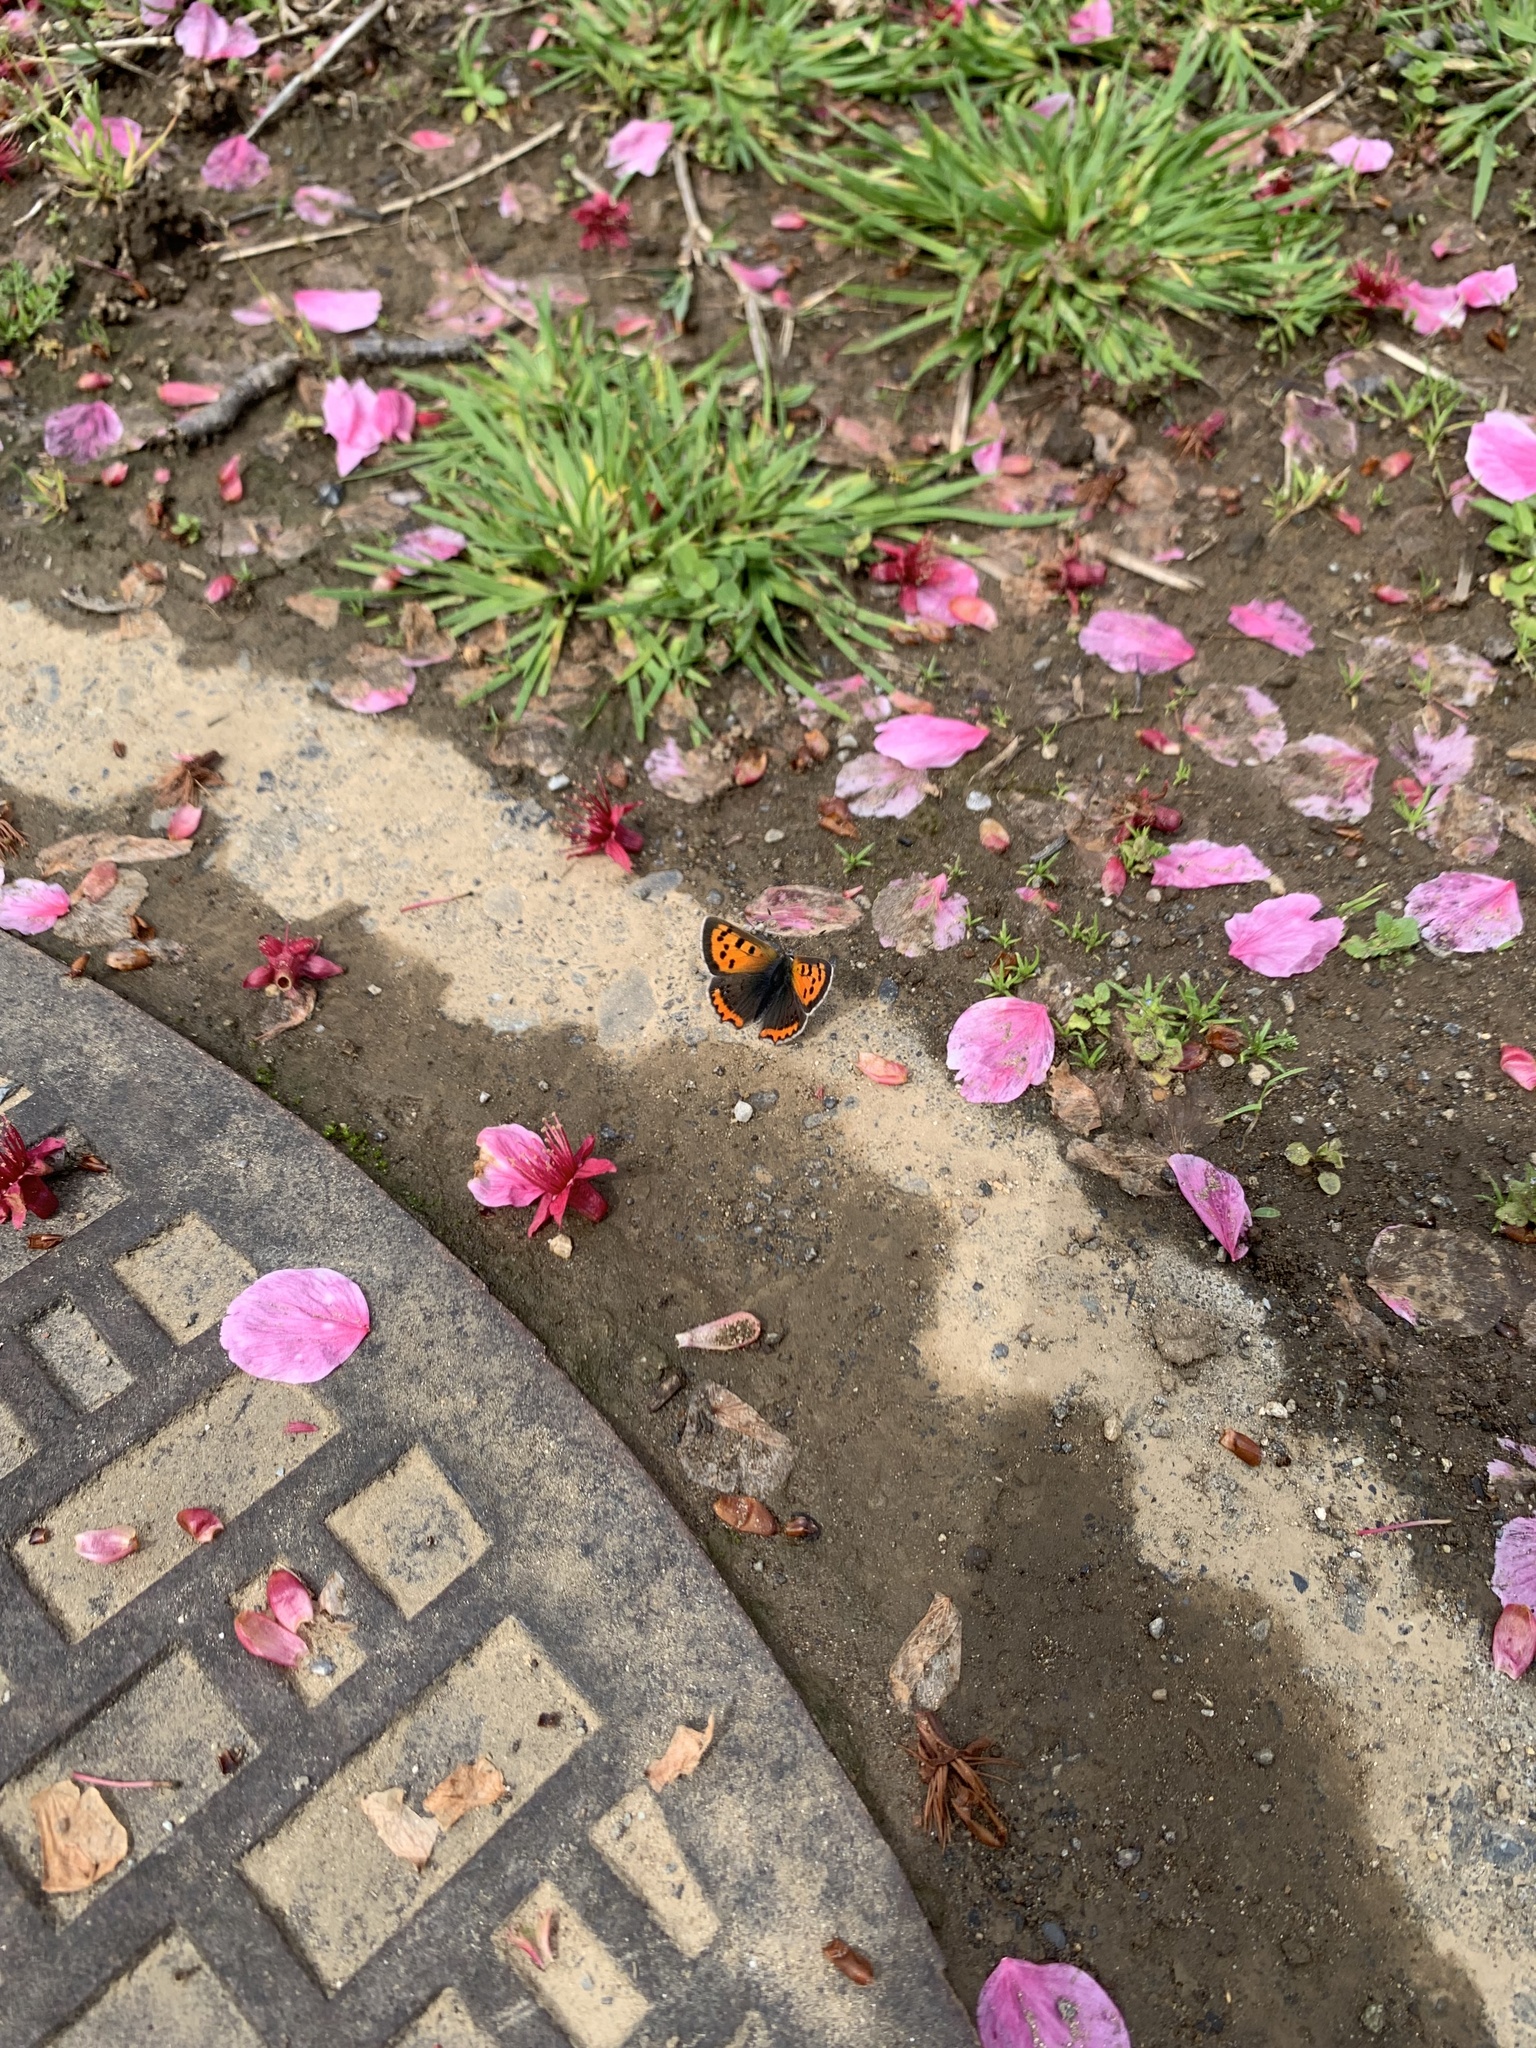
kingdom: Animalia
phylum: Arthropoda
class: Insecta
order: Lepidoptera
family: Lycaenidae
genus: Lycaena
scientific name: Lycaena phlaeas
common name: Small copper
